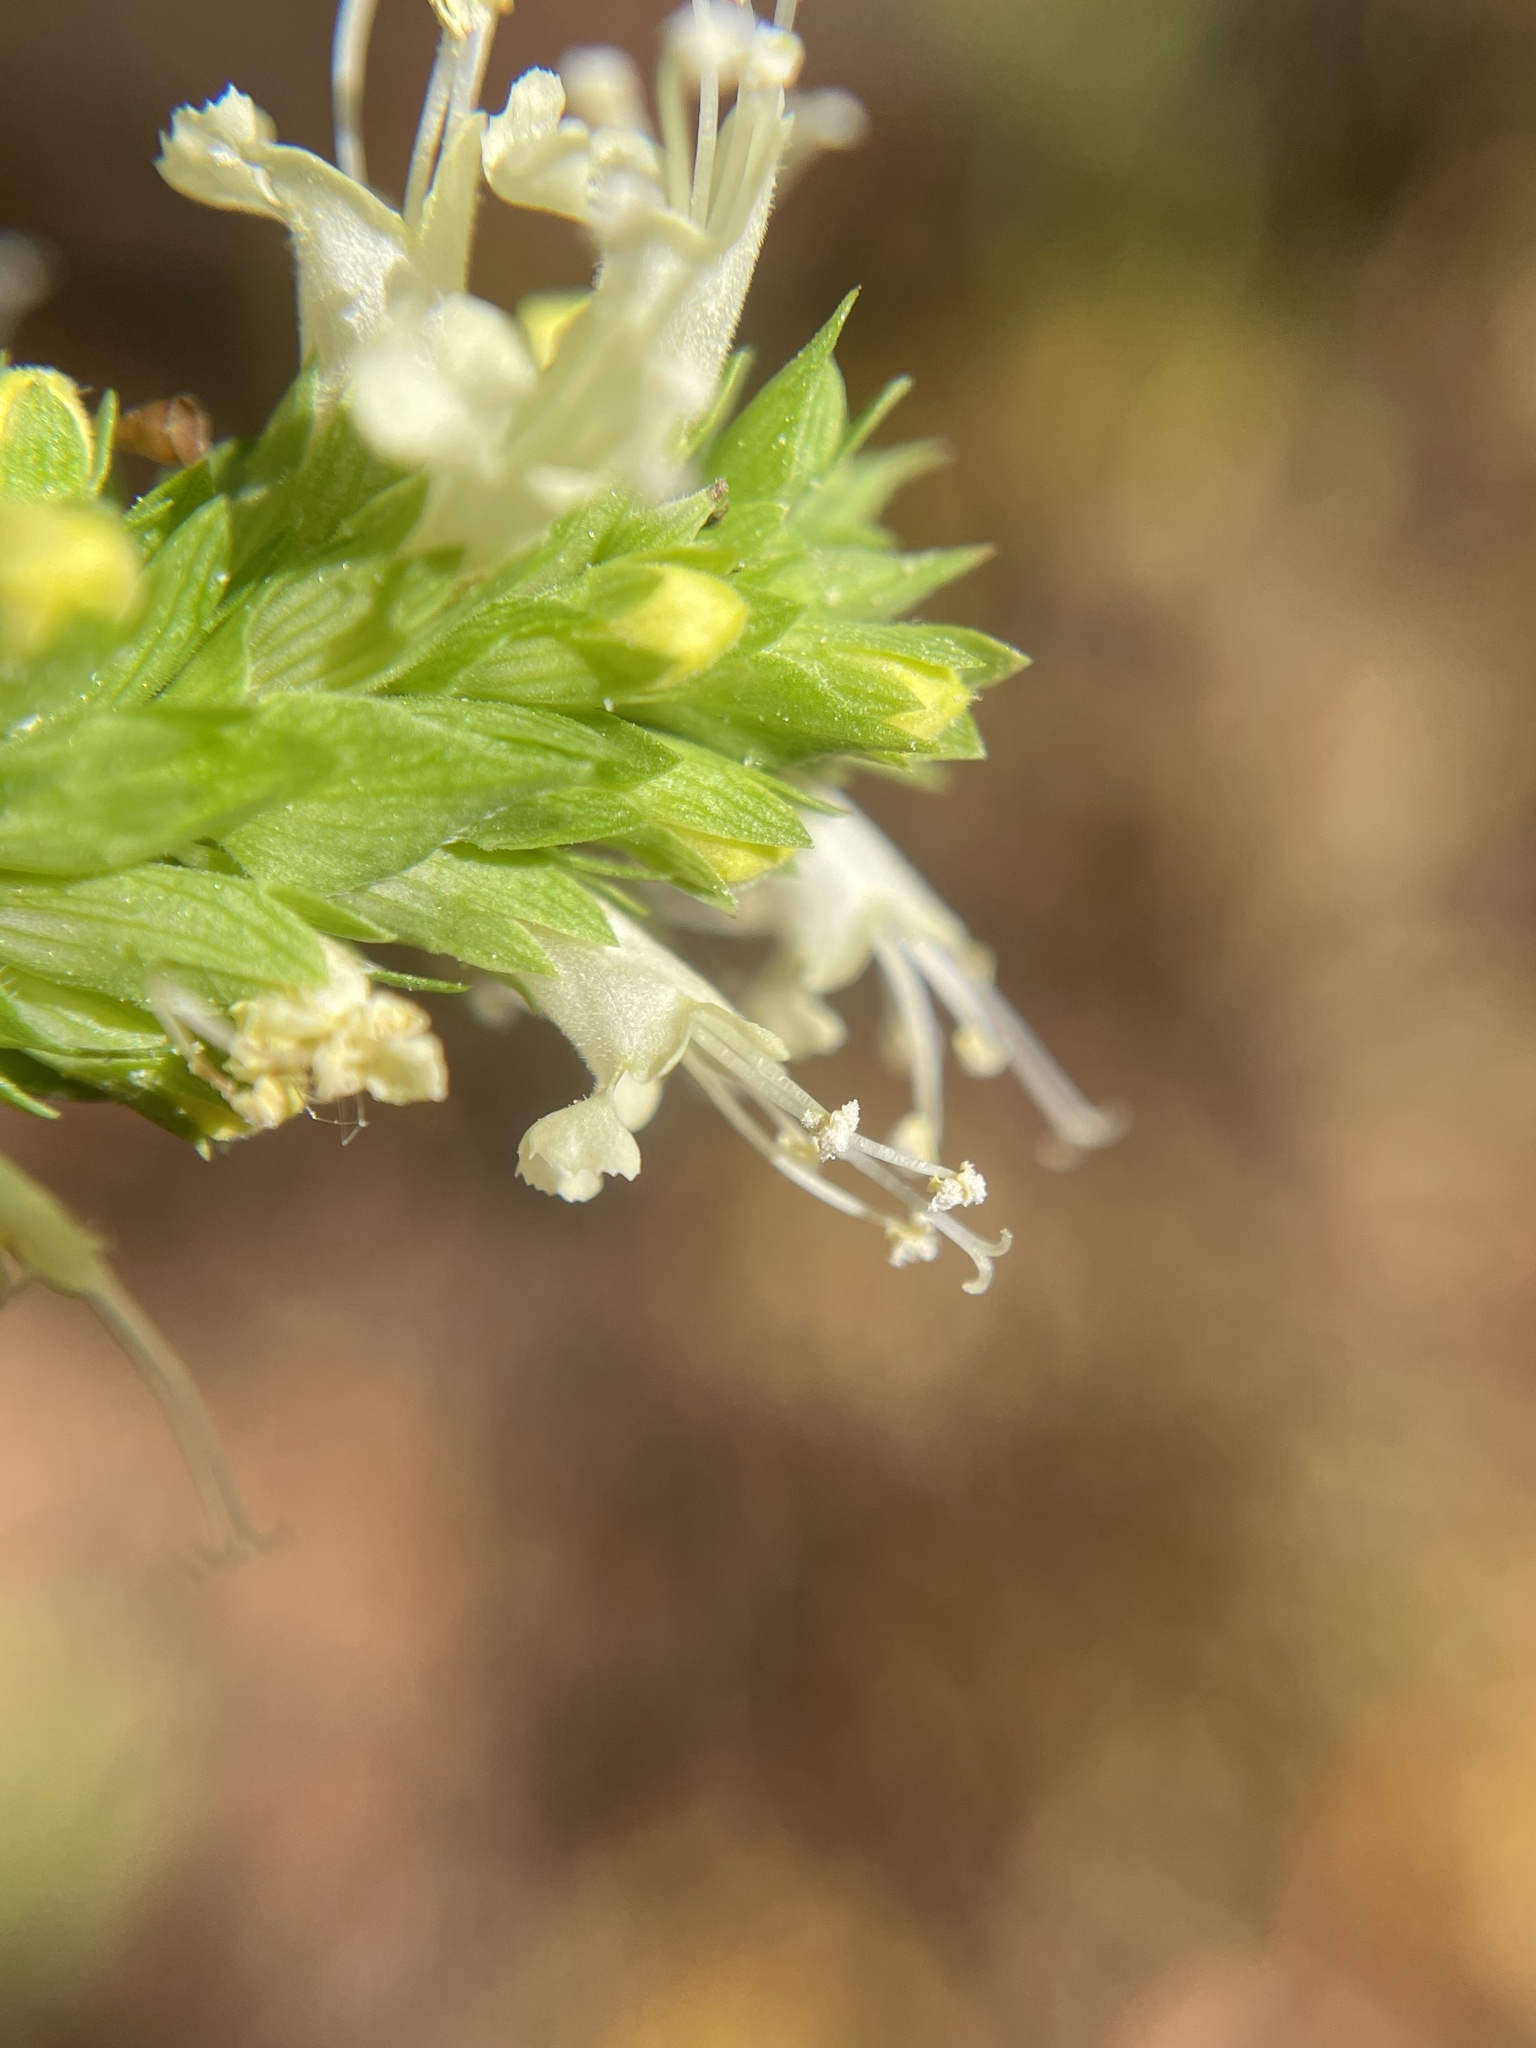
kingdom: Plantae
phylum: Tracheophyta
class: Magnoliopsida
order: Lamiales
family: Lamiaceae
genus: Agastache
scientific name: Agastache nepetoides
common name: Catnip giant hyssop
